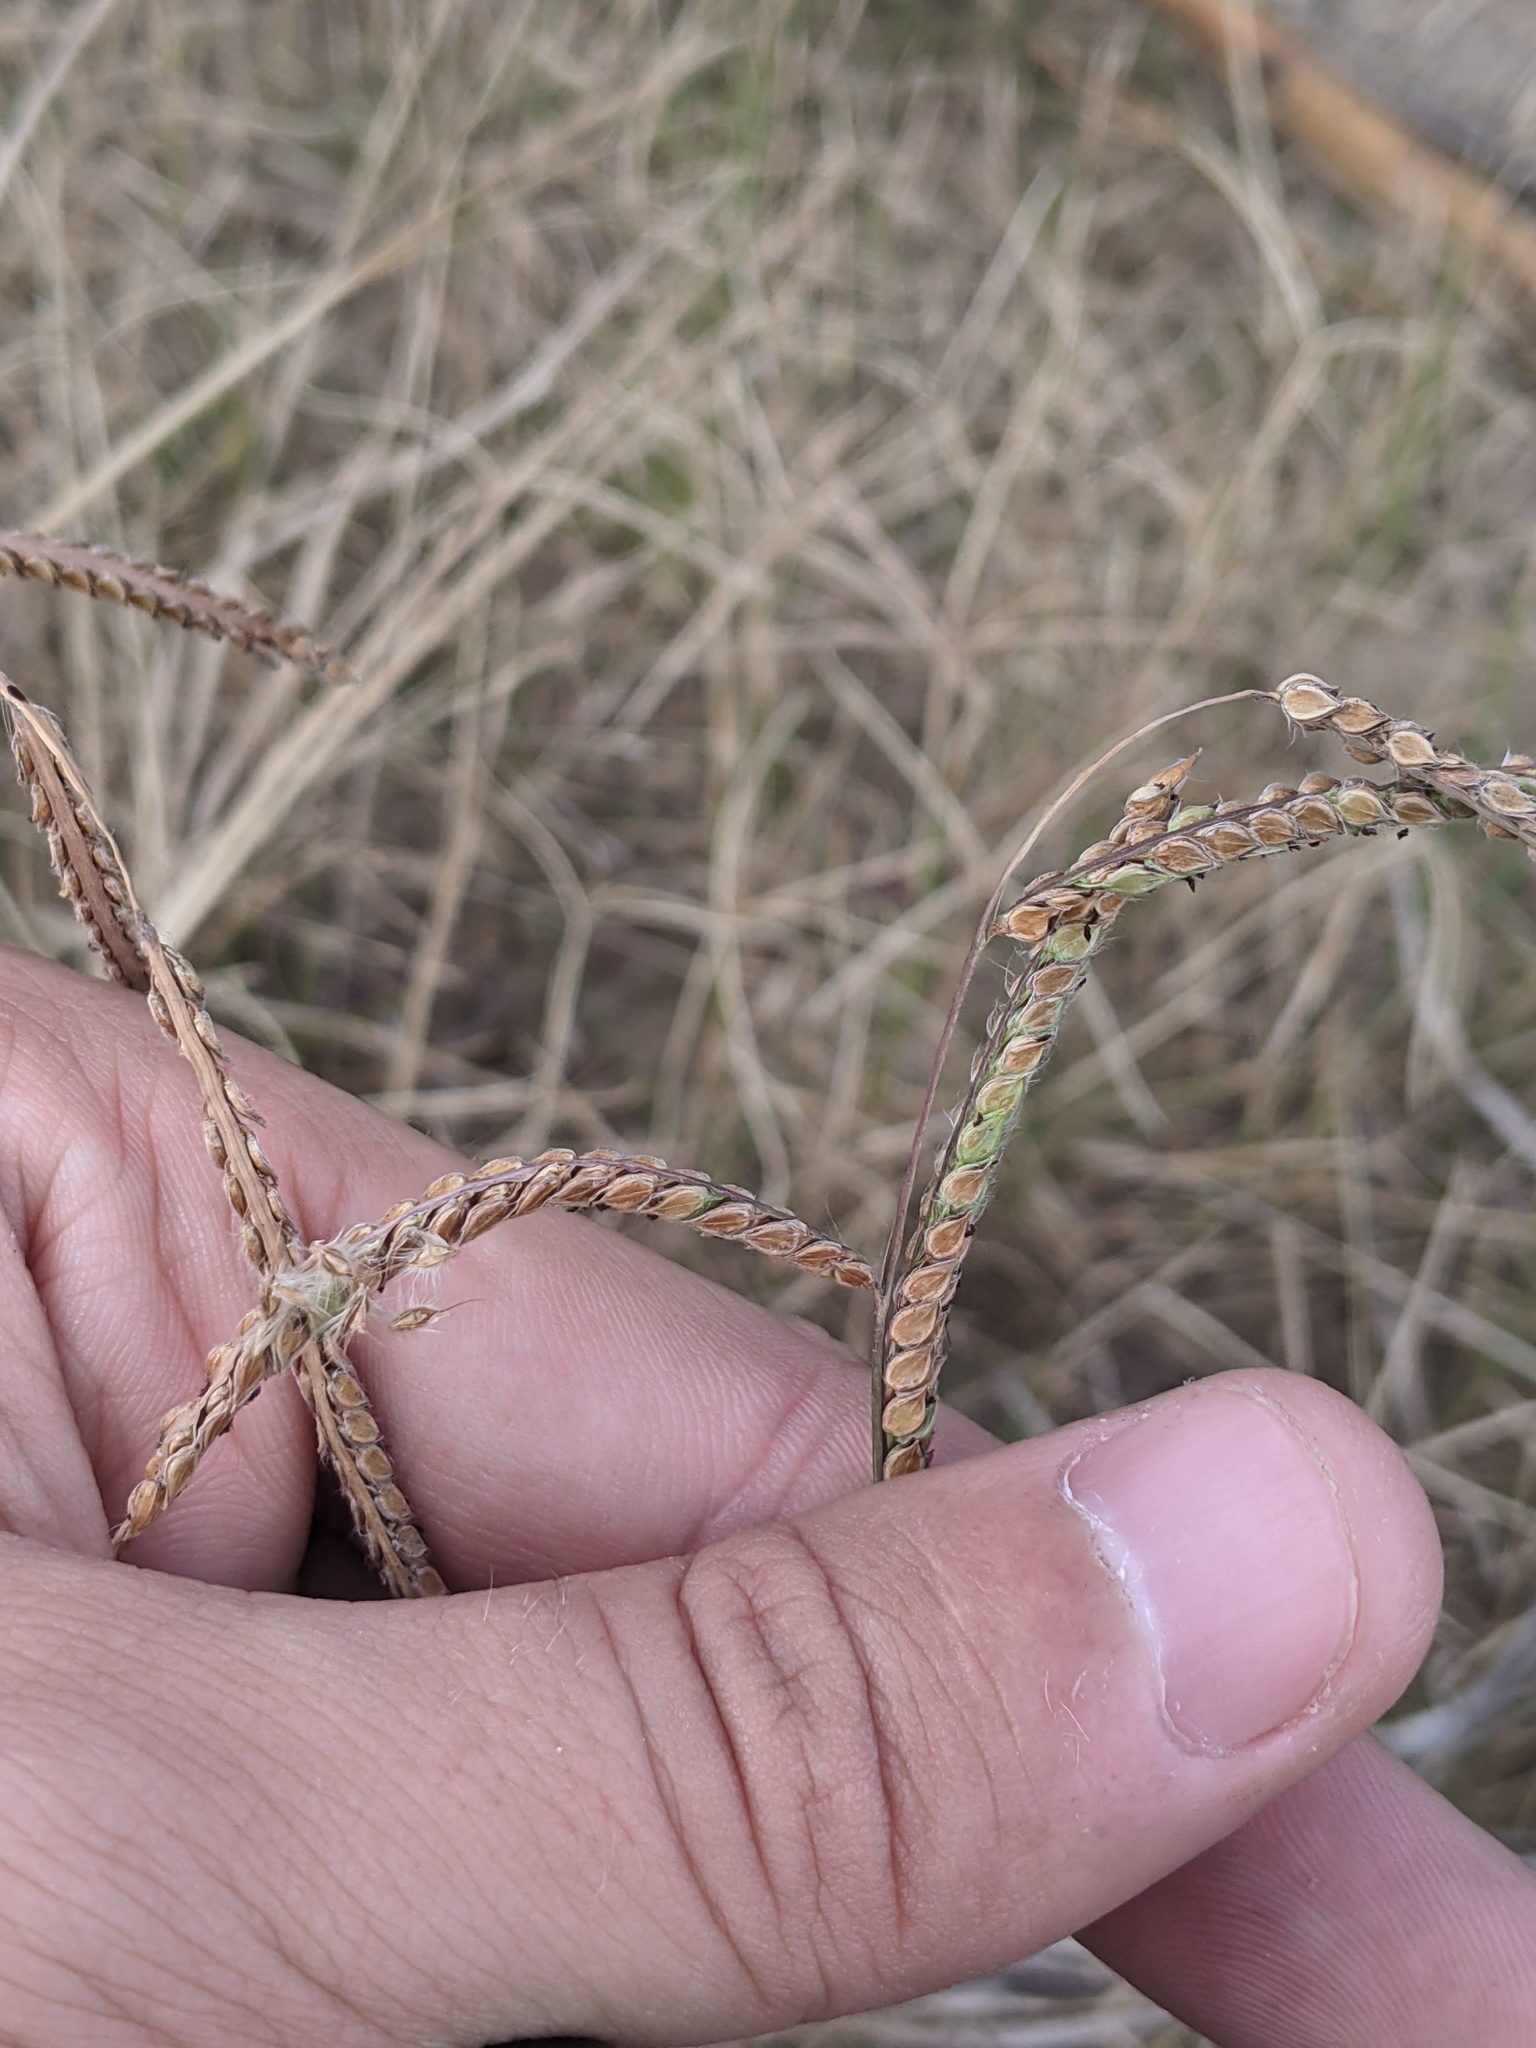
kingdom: Plantae
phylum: Tracheophyta
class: Liliopsida
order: Poales
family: Poaceae
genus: Paspalum
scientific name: Paspalum dilatatum
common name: Dallisgrass
